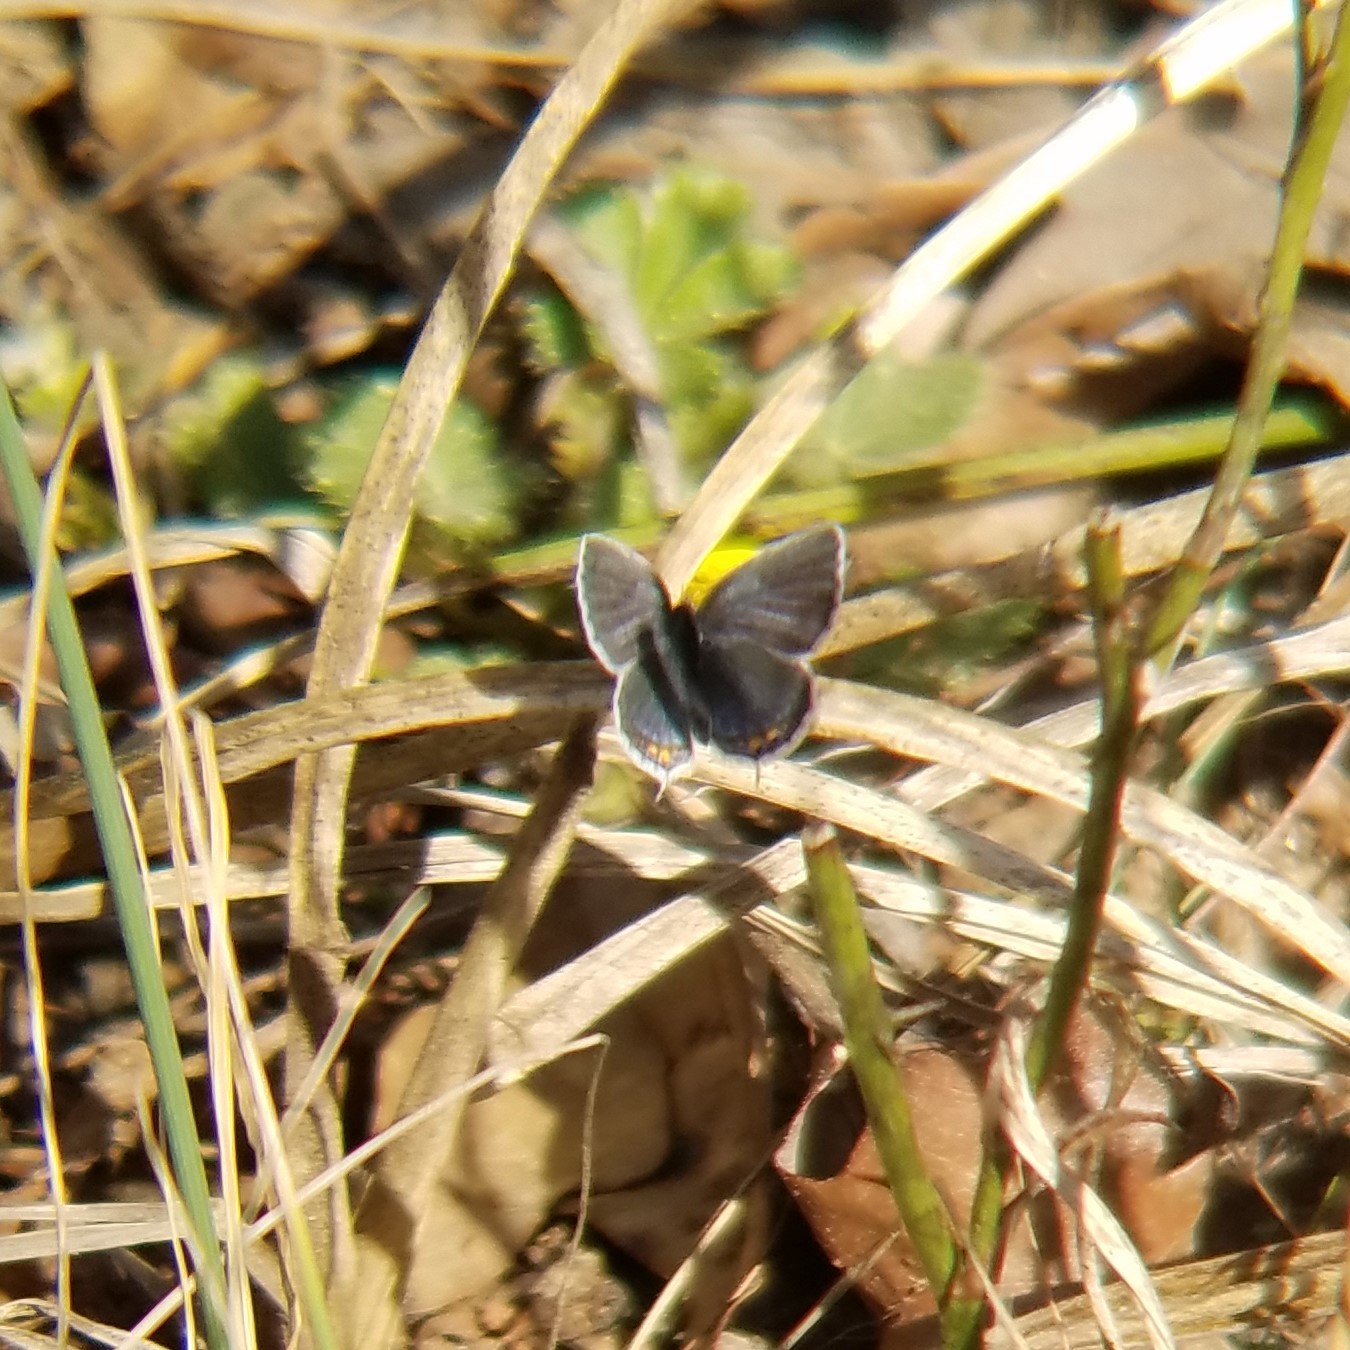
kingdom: Animalia
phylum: Arthropoda
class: Insecta
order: Lepidoptera
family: Lycaenidae
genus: Elkalyce
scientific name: Elkalyce comyntas
